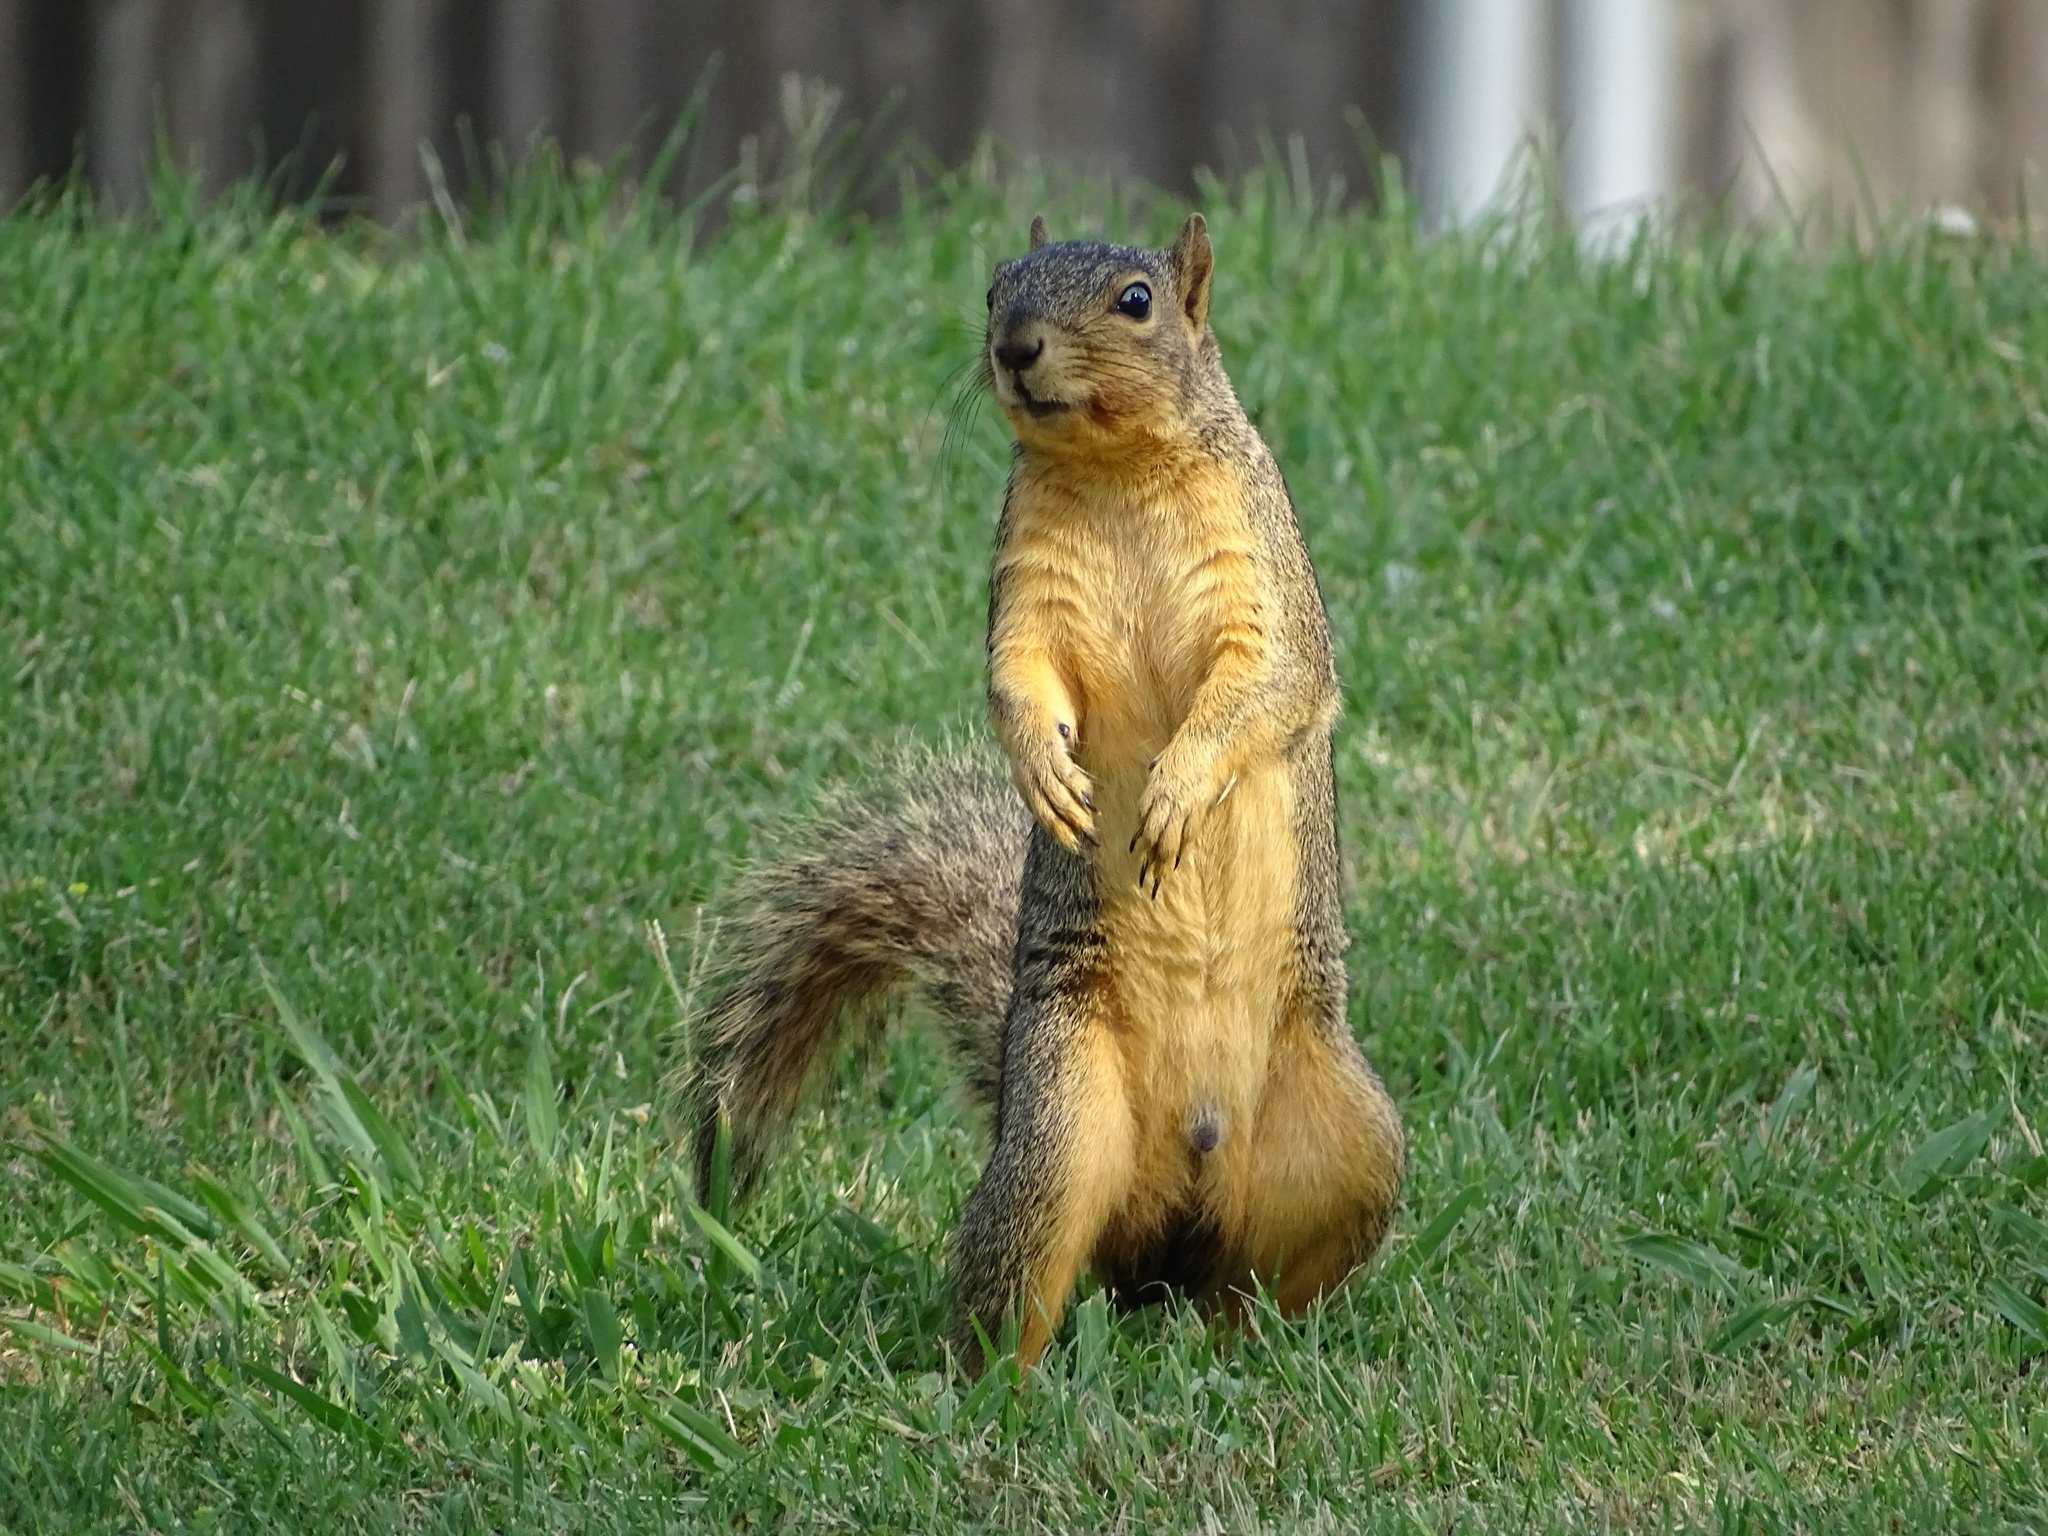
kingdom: Animalia
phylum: Chordata
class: Mammalia
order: Rodentia
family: Sciuridae
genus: Sciurus
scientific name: Sciurus niger
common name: Fox squirrel
